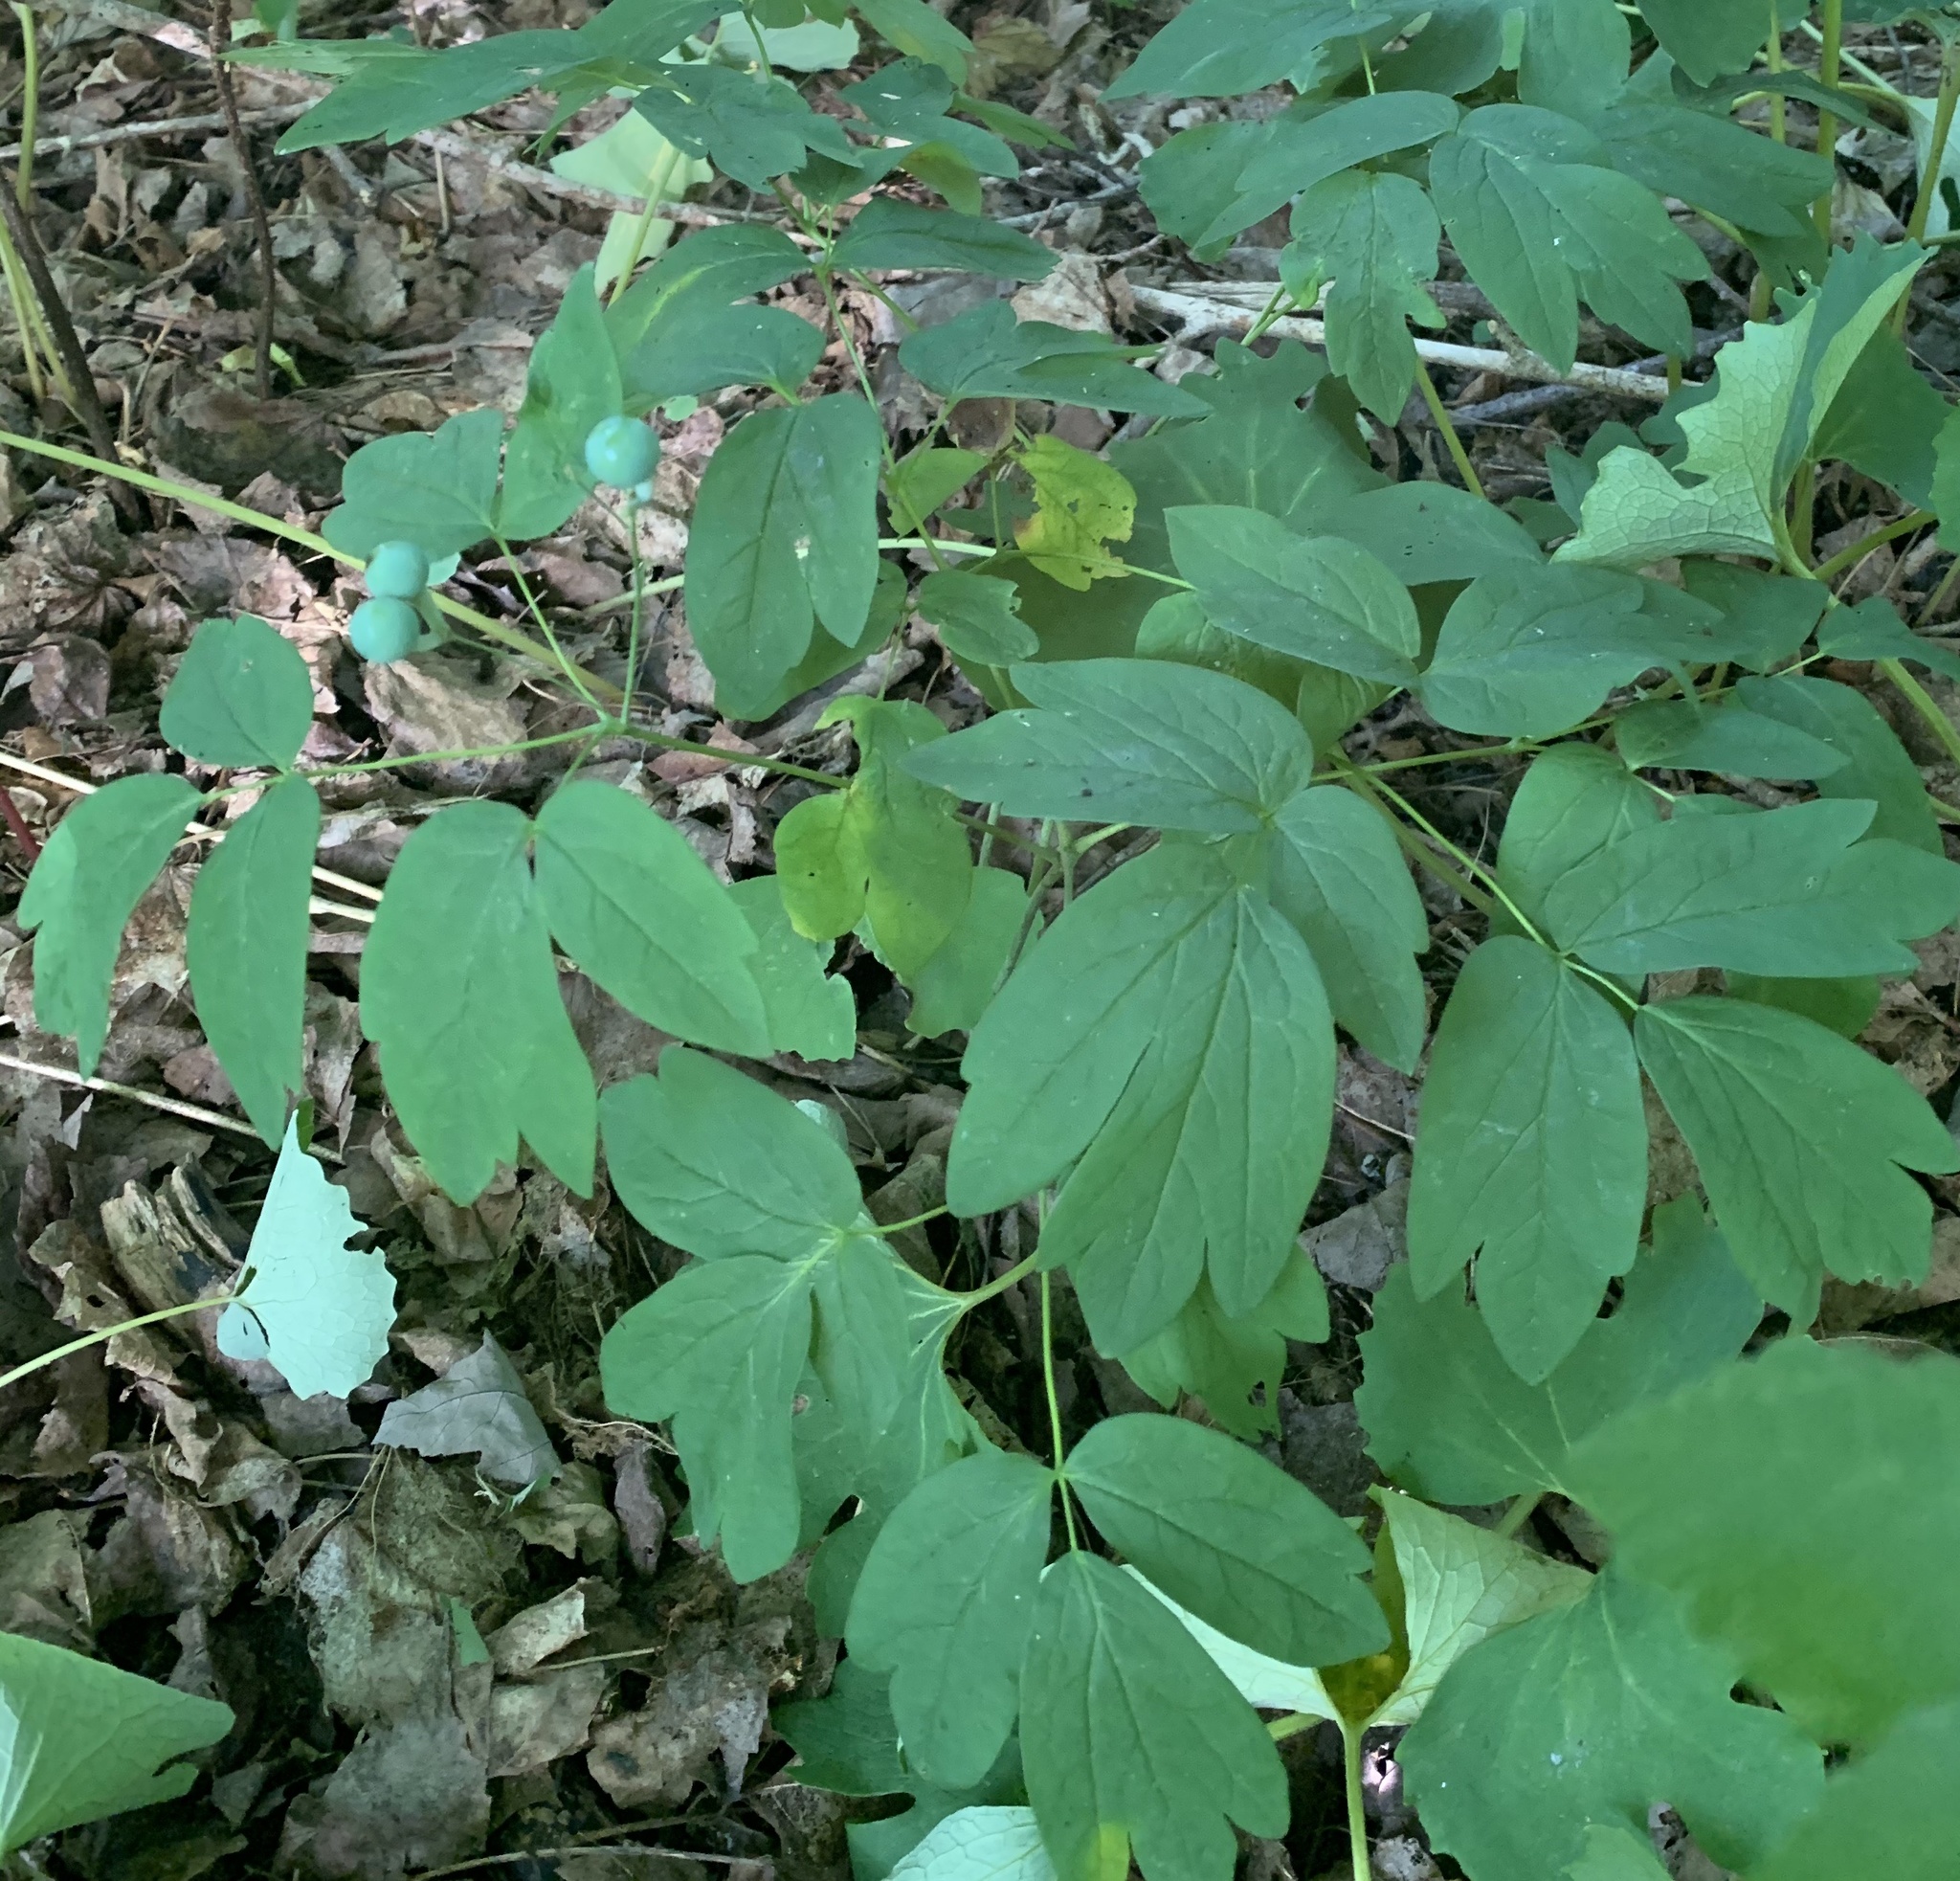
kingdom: Plantae
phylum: Tracheophyta
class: Magnoliopsida
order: Ranunculales
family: Berberidaceae
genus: Caulophyllum
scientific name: Caulophyllum thalictroides
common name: Blue cohosh
